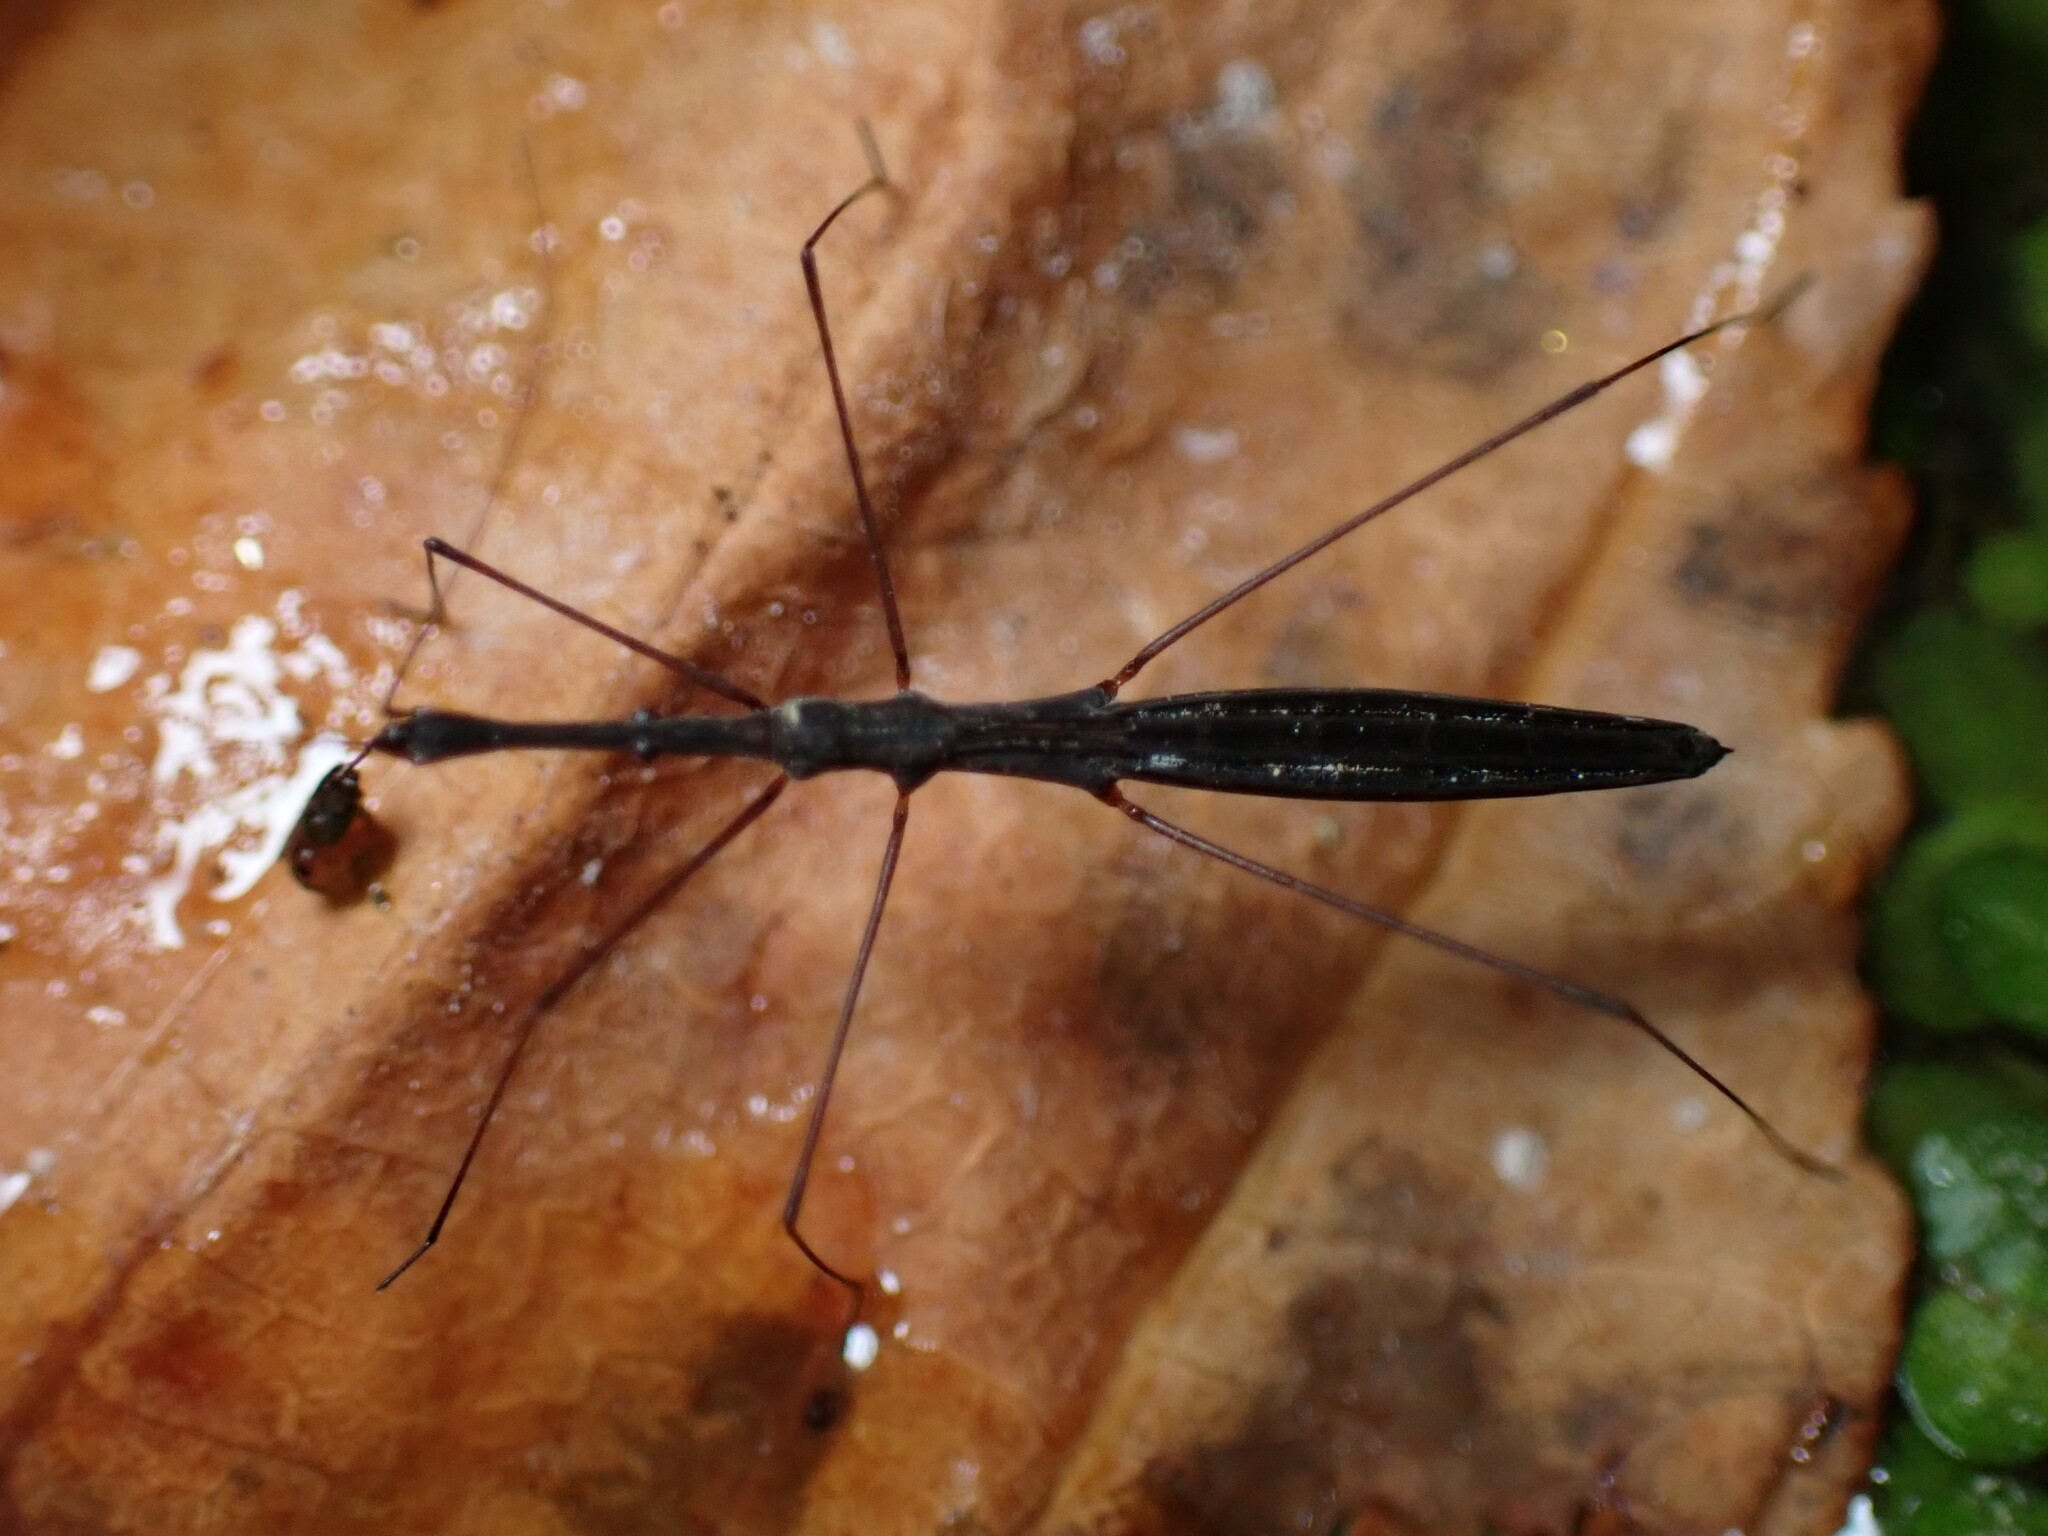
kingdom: Animalia
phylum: Arthropoda
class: Insecta
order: Hemiptera
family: Hydrometridae
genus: Hydrometra
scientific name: Hydrometra stagnorum
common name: Water measurer
